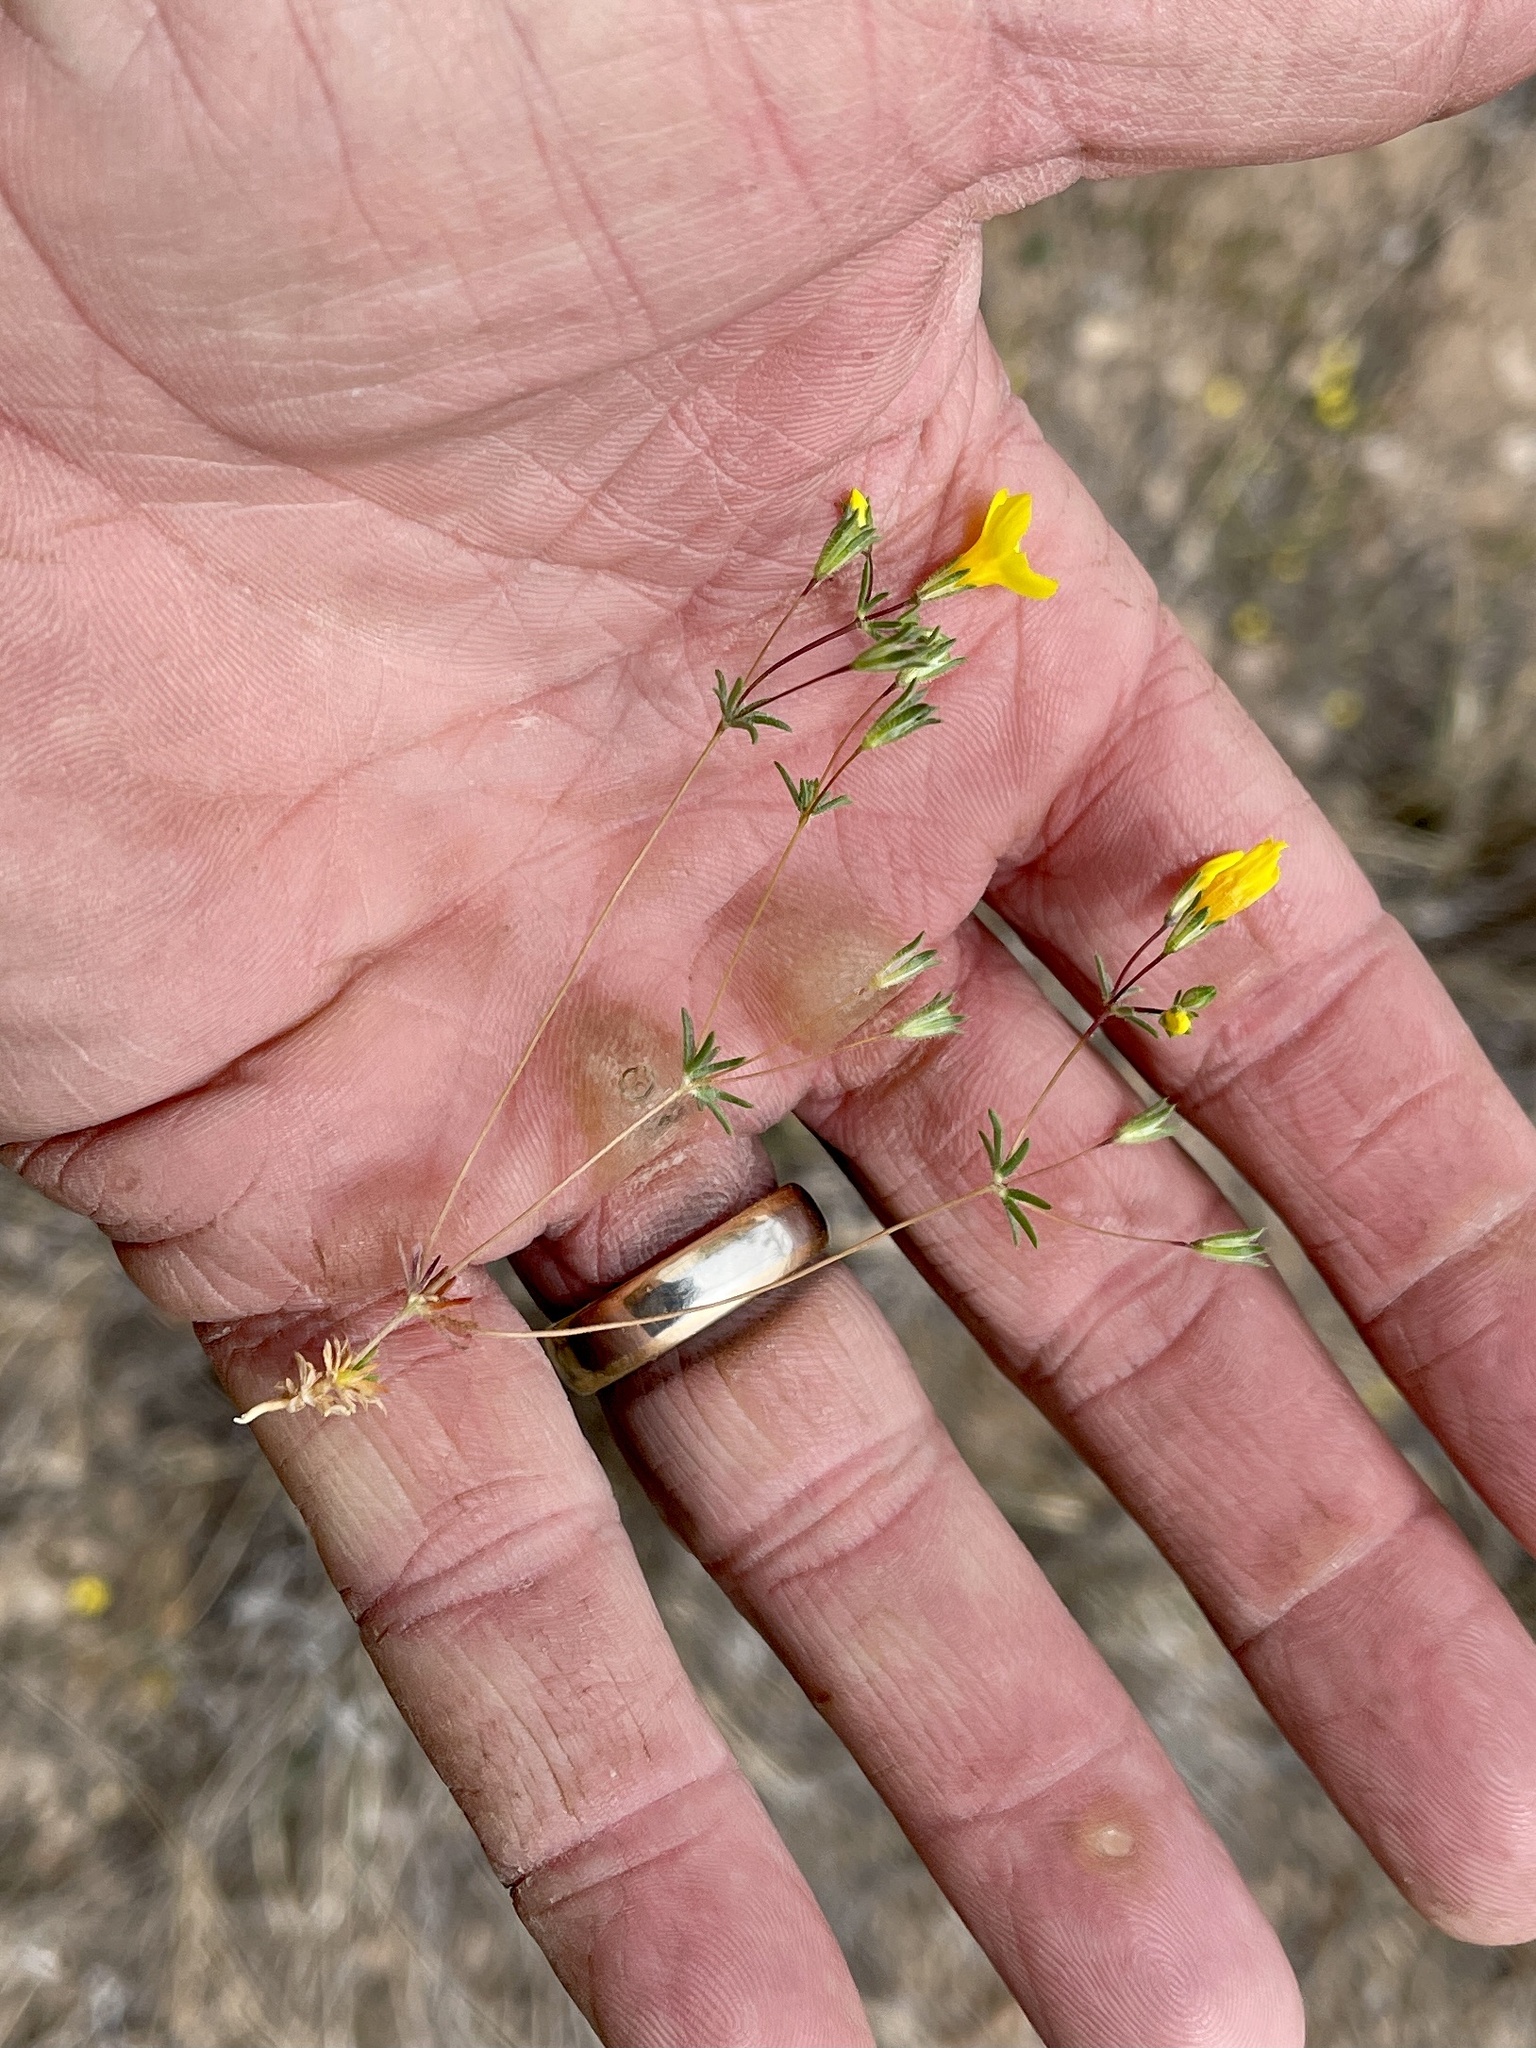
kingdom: Plantae
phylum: Tracheophyta
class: Magnoliopsida
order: Ericales
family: Polemoniaceae
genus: Leptosiphon
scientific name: Leptosiphon chrysanthus
